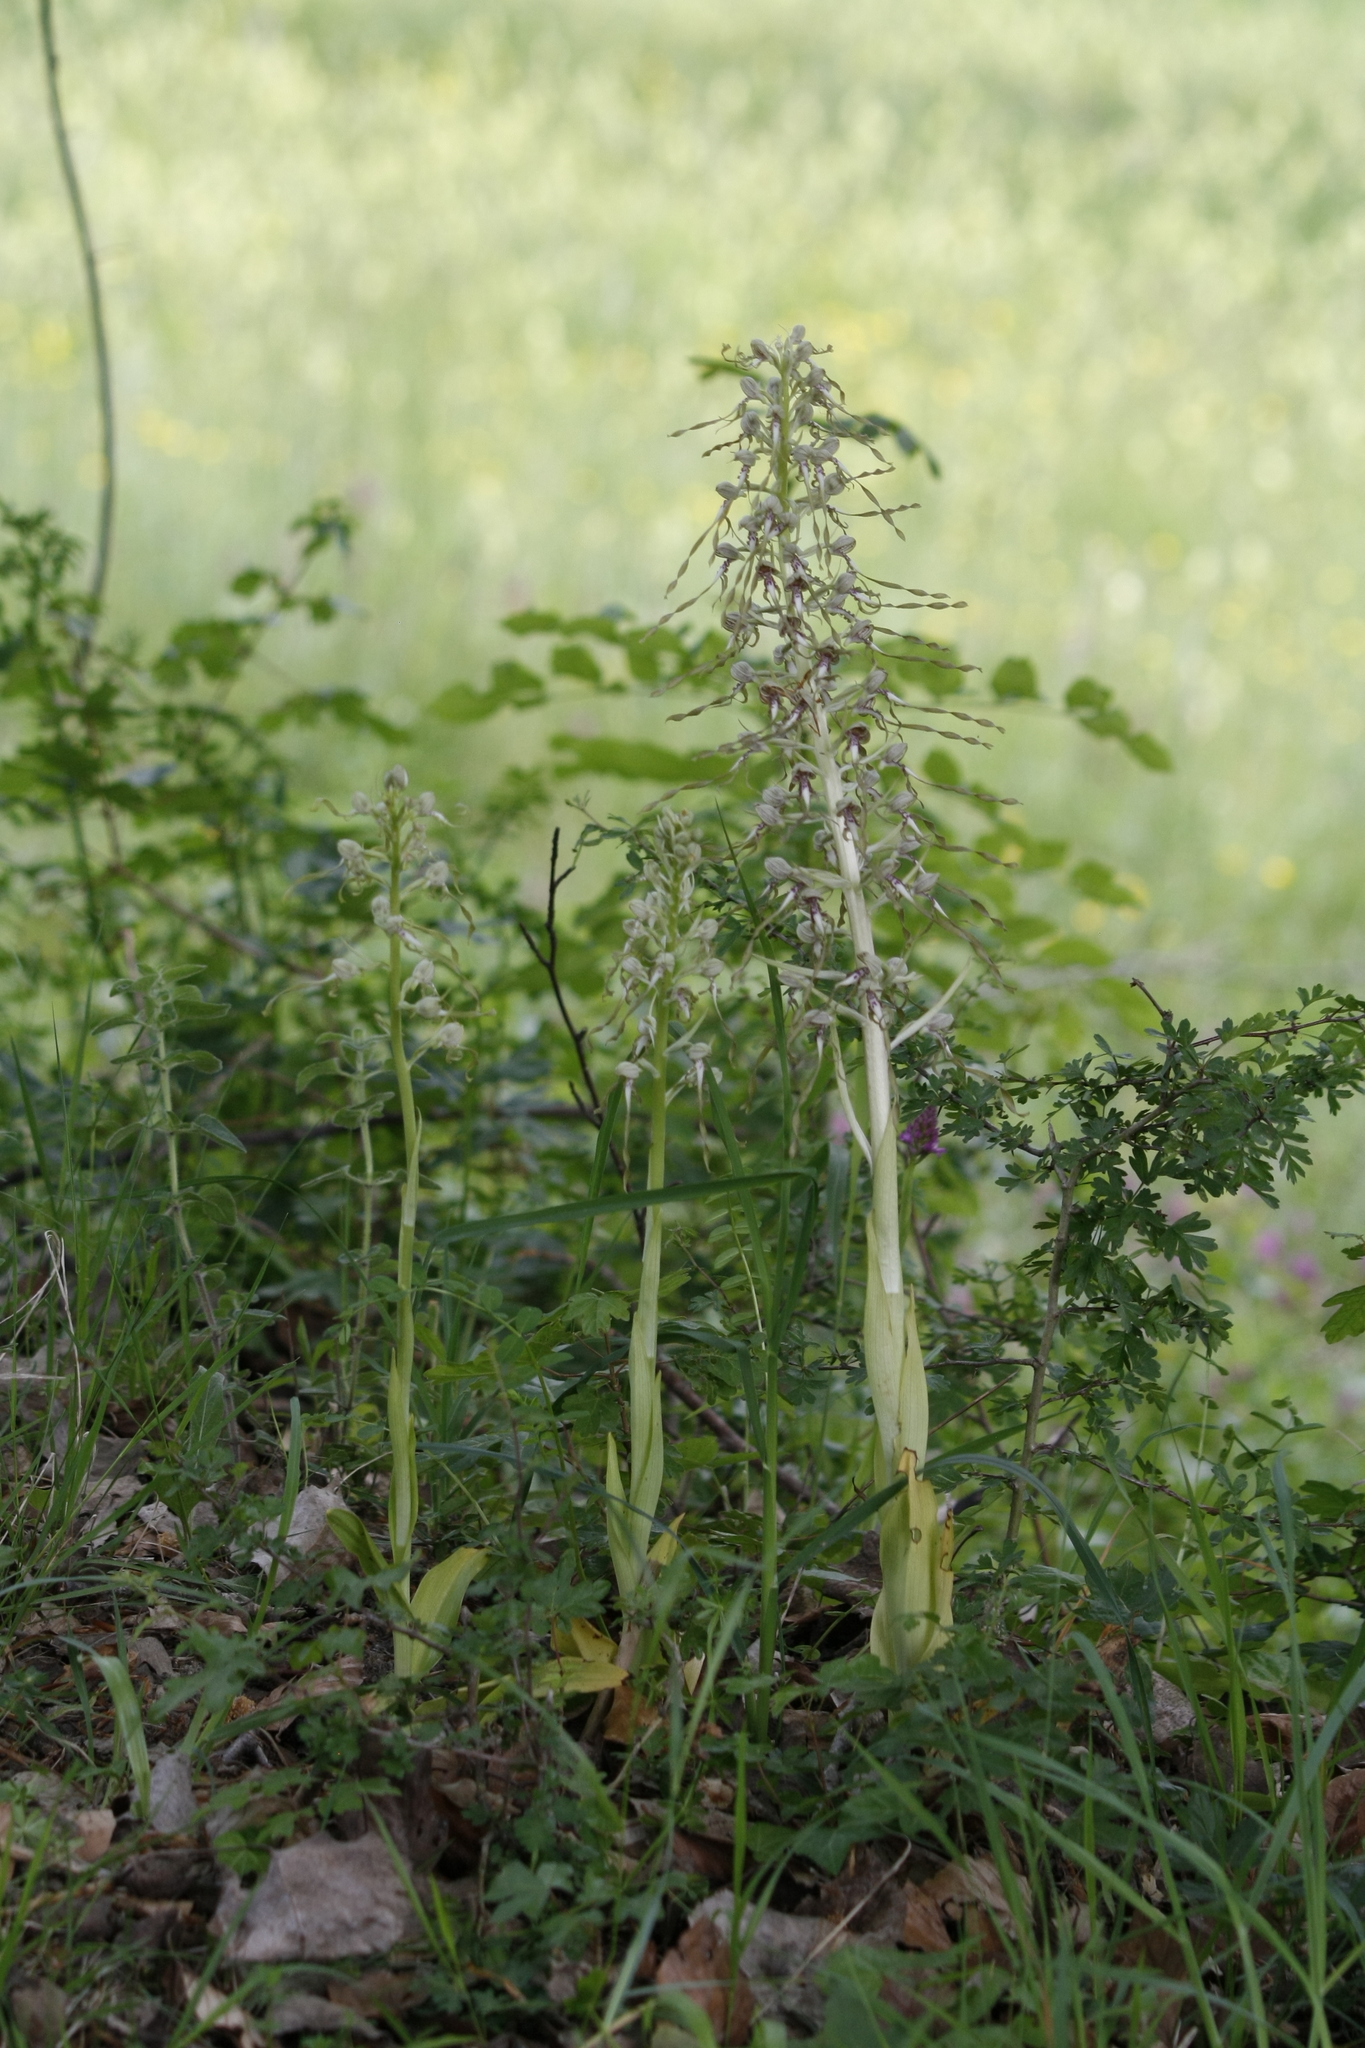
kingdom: Plantae
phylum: Tracheophyta
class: Liliopsida
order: Asparagales
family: Orchidaceae
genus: Himantoglossum
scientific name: Himantoglossum hircinum
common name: Lizard orchid
